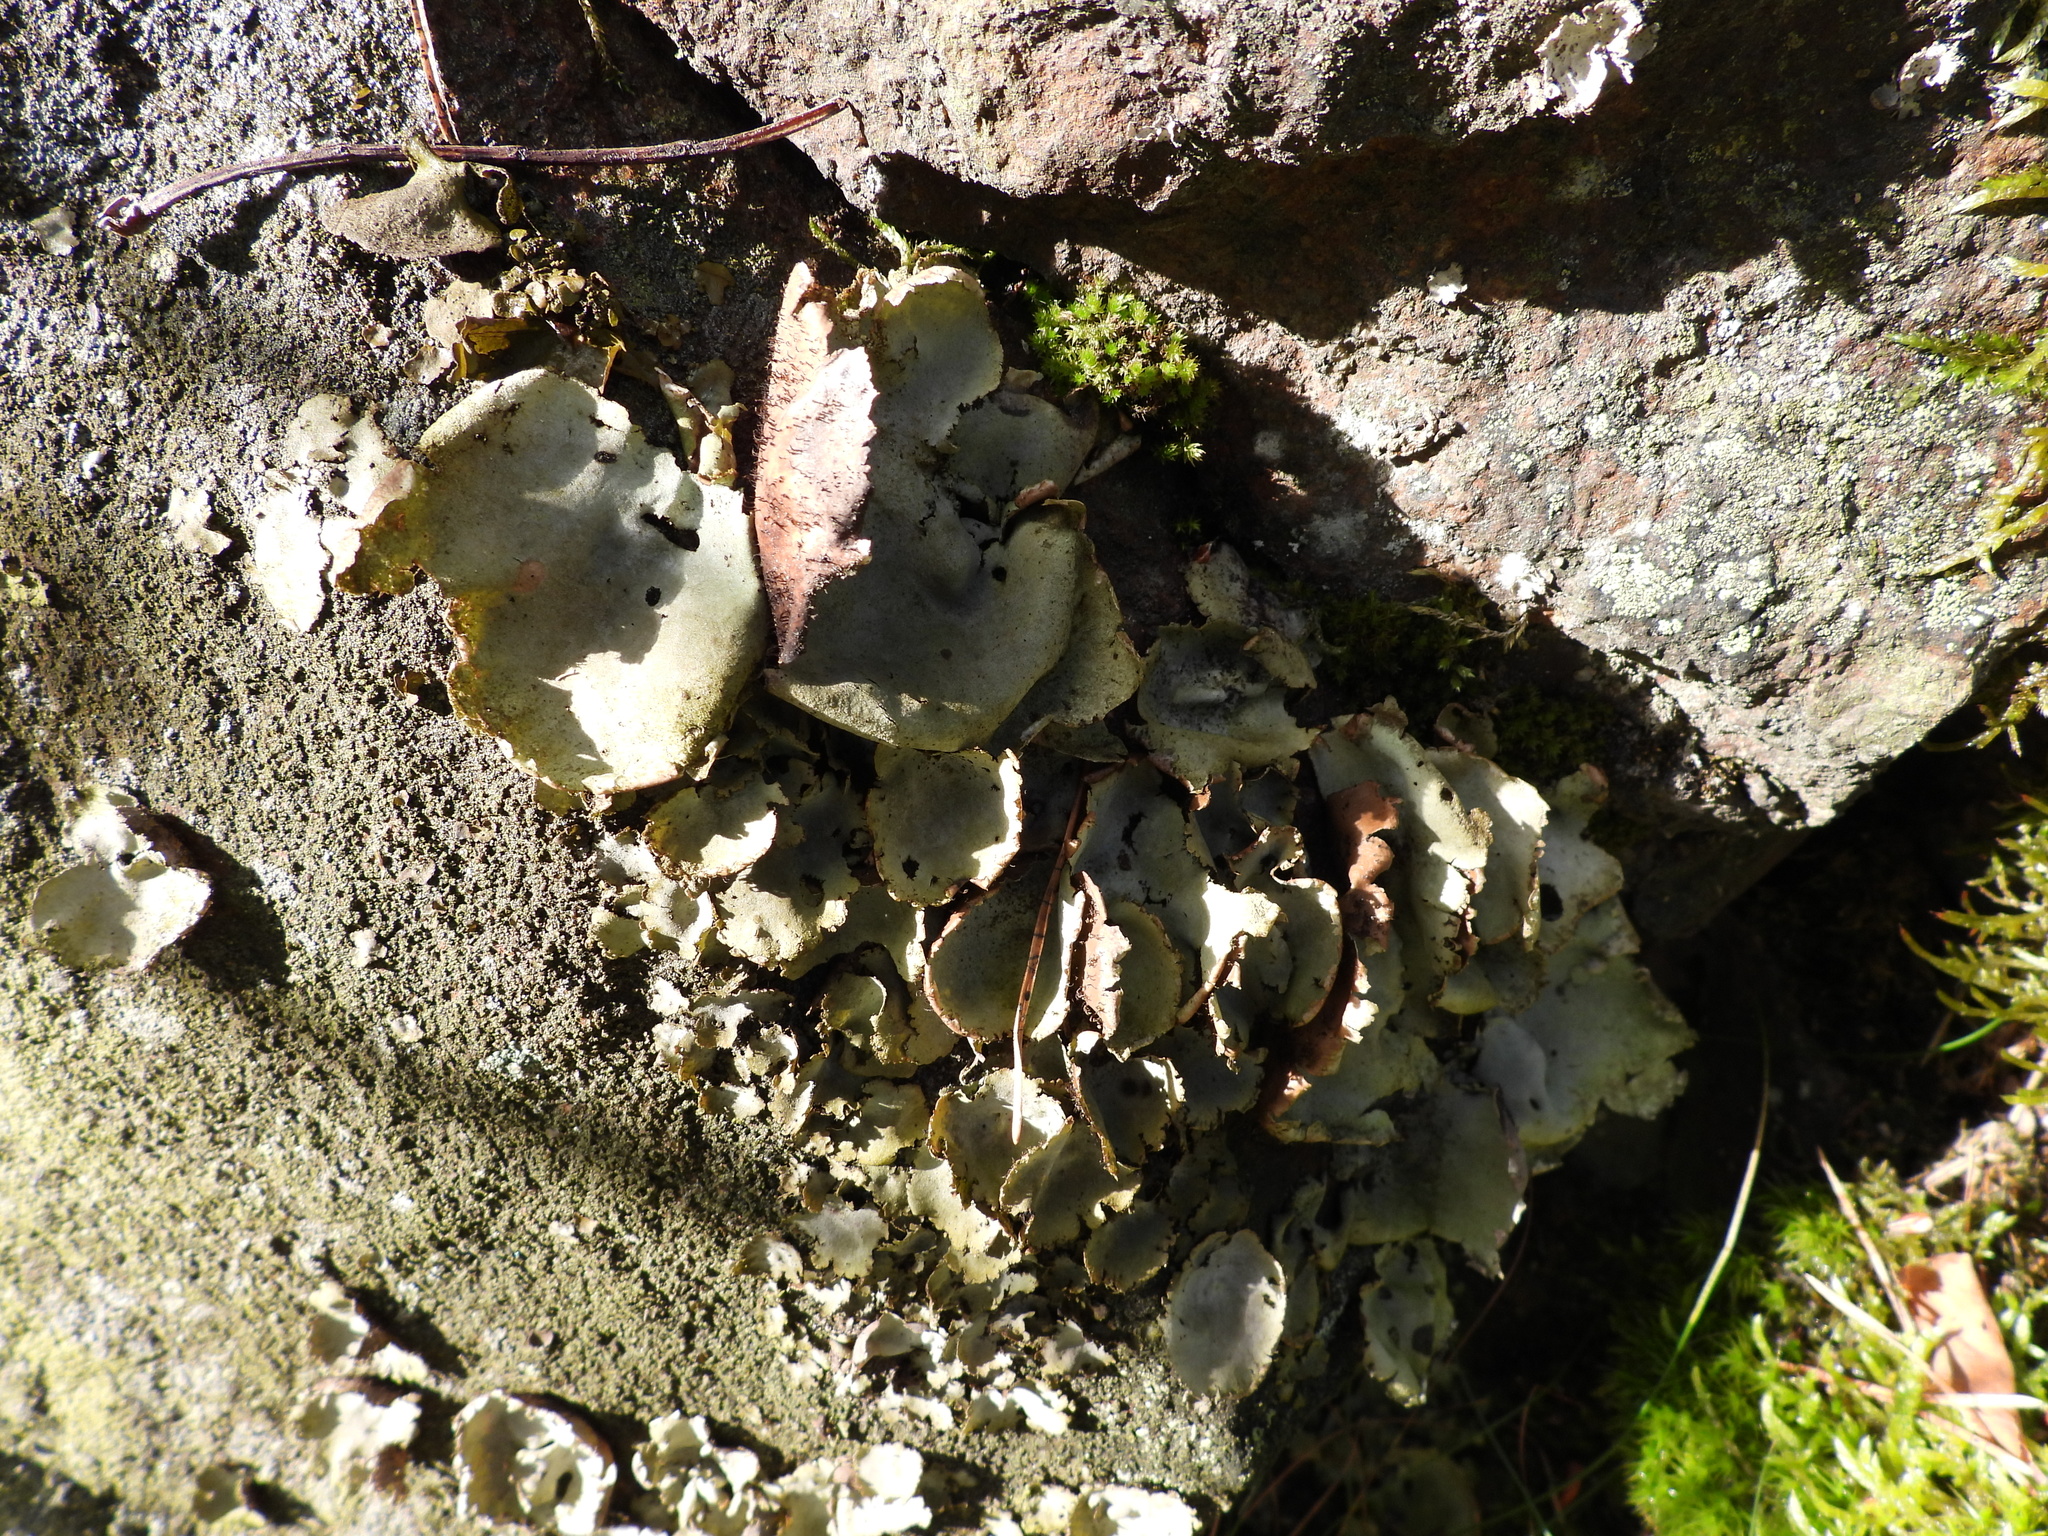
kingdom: Fungi
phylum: Ascomycota
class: Lecanoromycetes
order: Umbilicariales
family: Umbilicariaceae
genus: Umbilicaria
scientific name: Umbilicaria hirsuta
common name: Granulating rocktripe lichen
